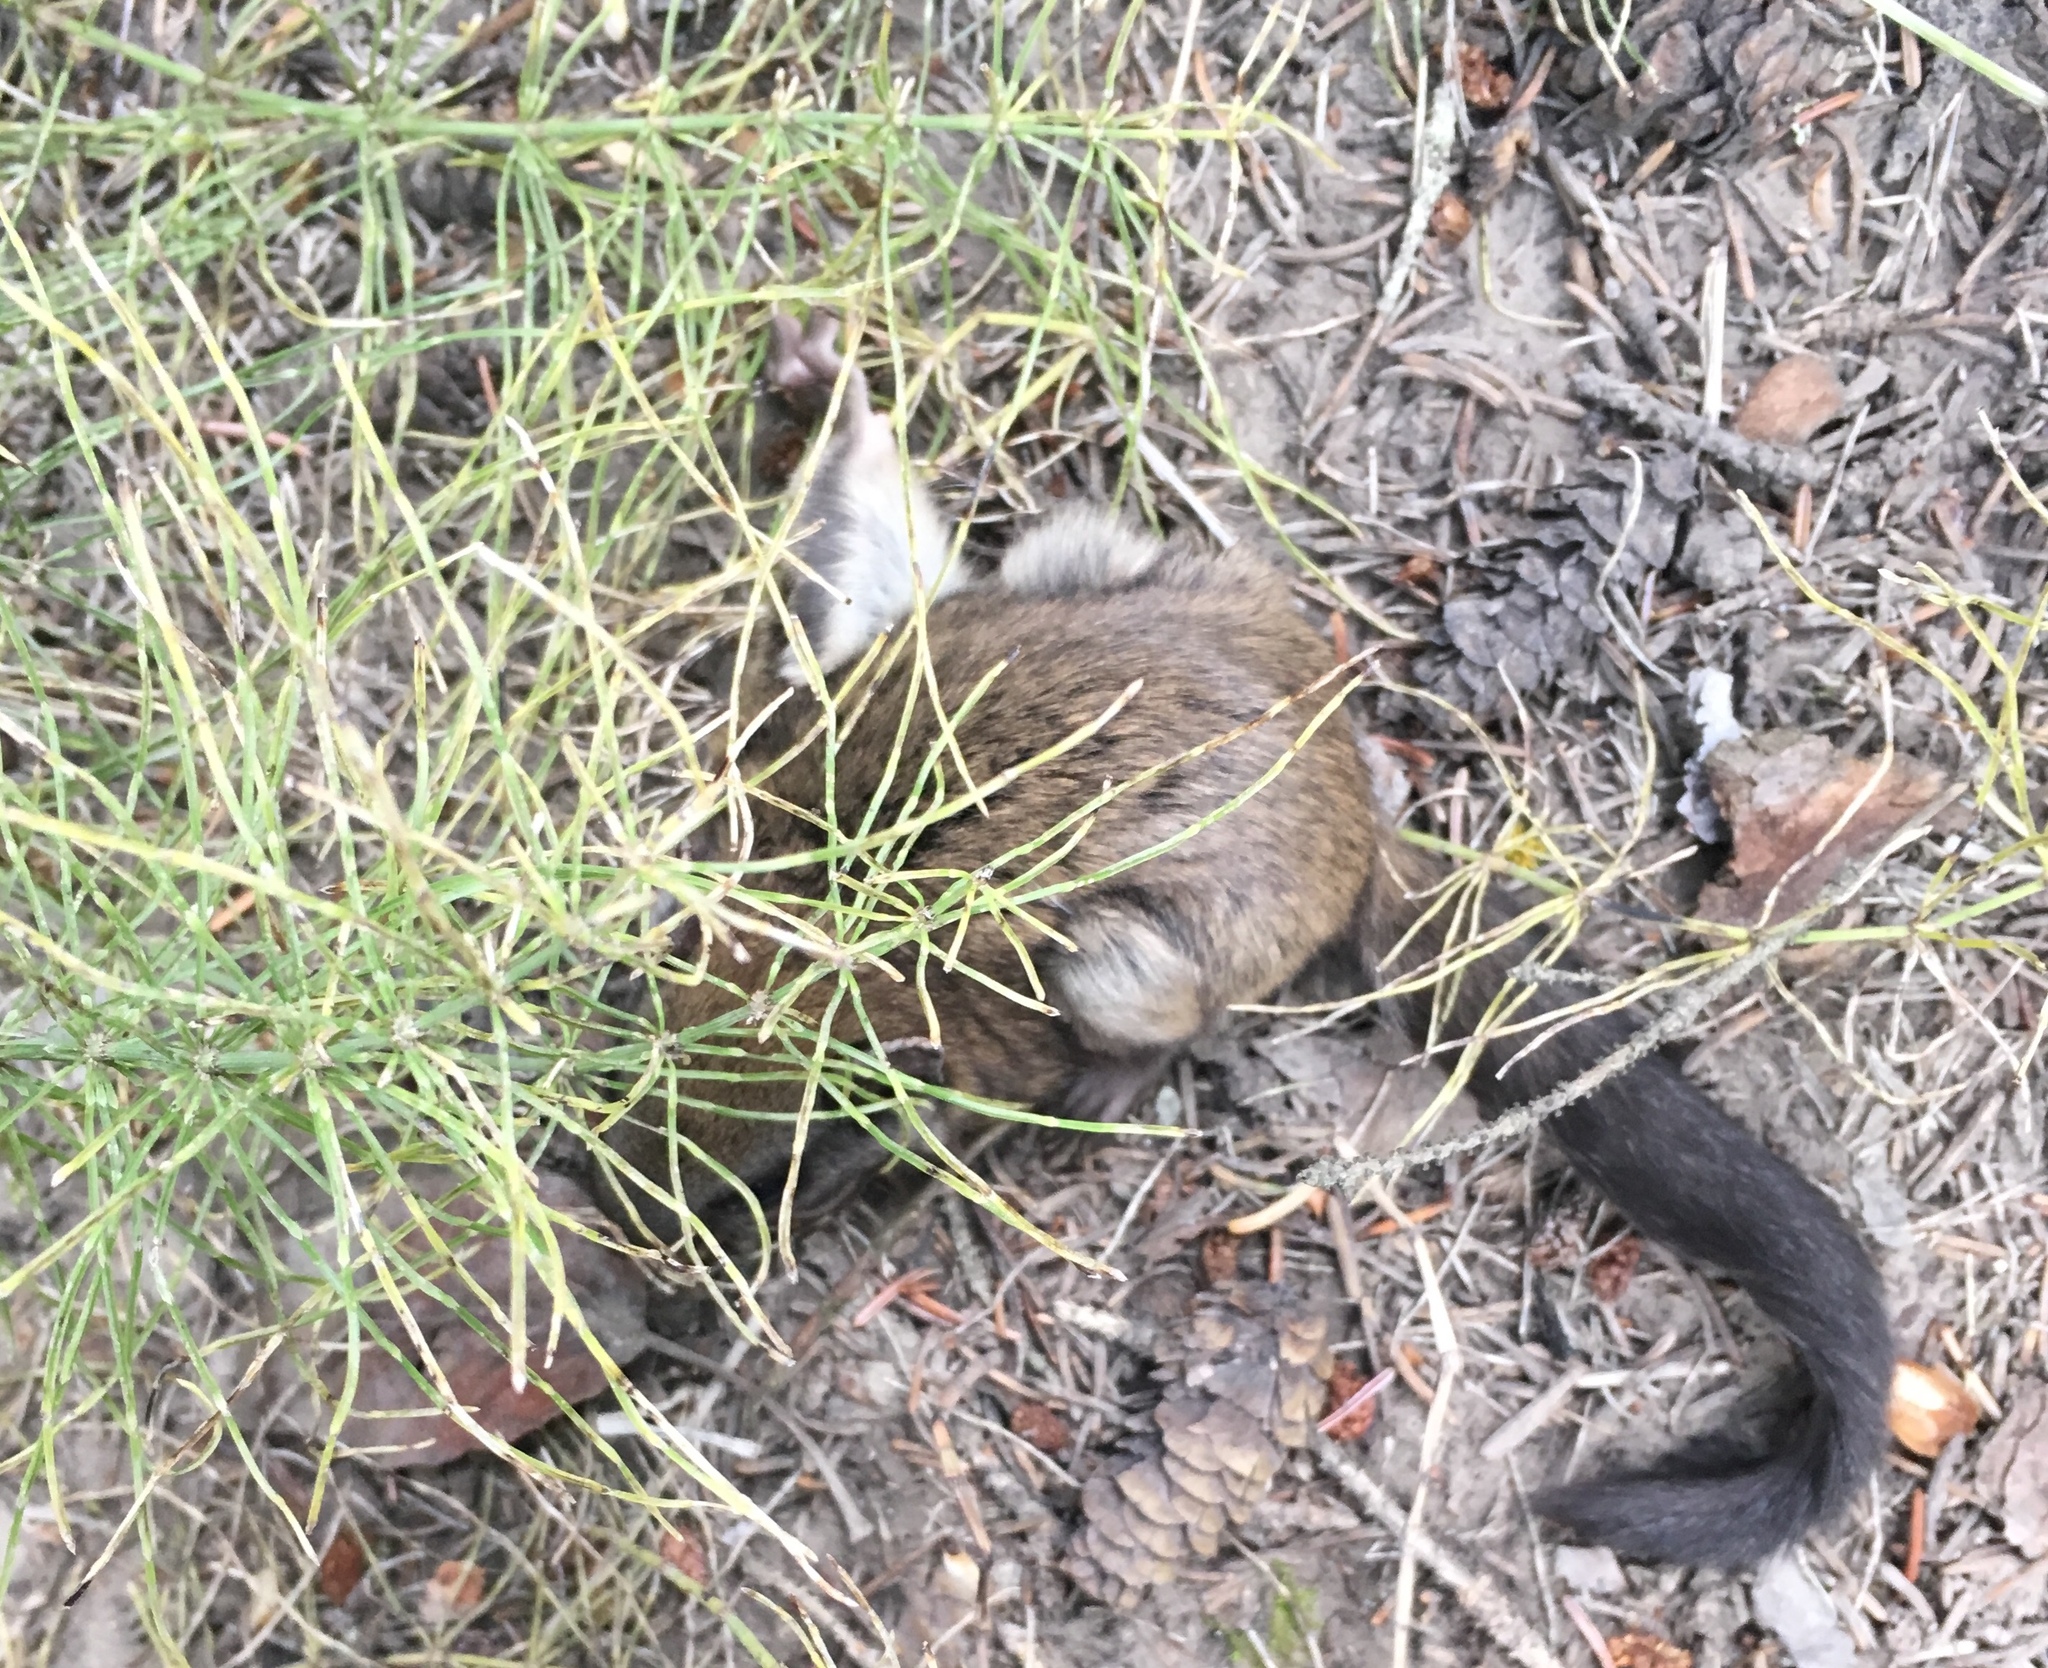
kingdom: Animalia
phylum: Chordata
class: Mammalia
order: Rodentia
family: Sciuridae
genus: Glaucomys
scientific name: Glaucomys sabrinus
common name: Northern flying squirrel
